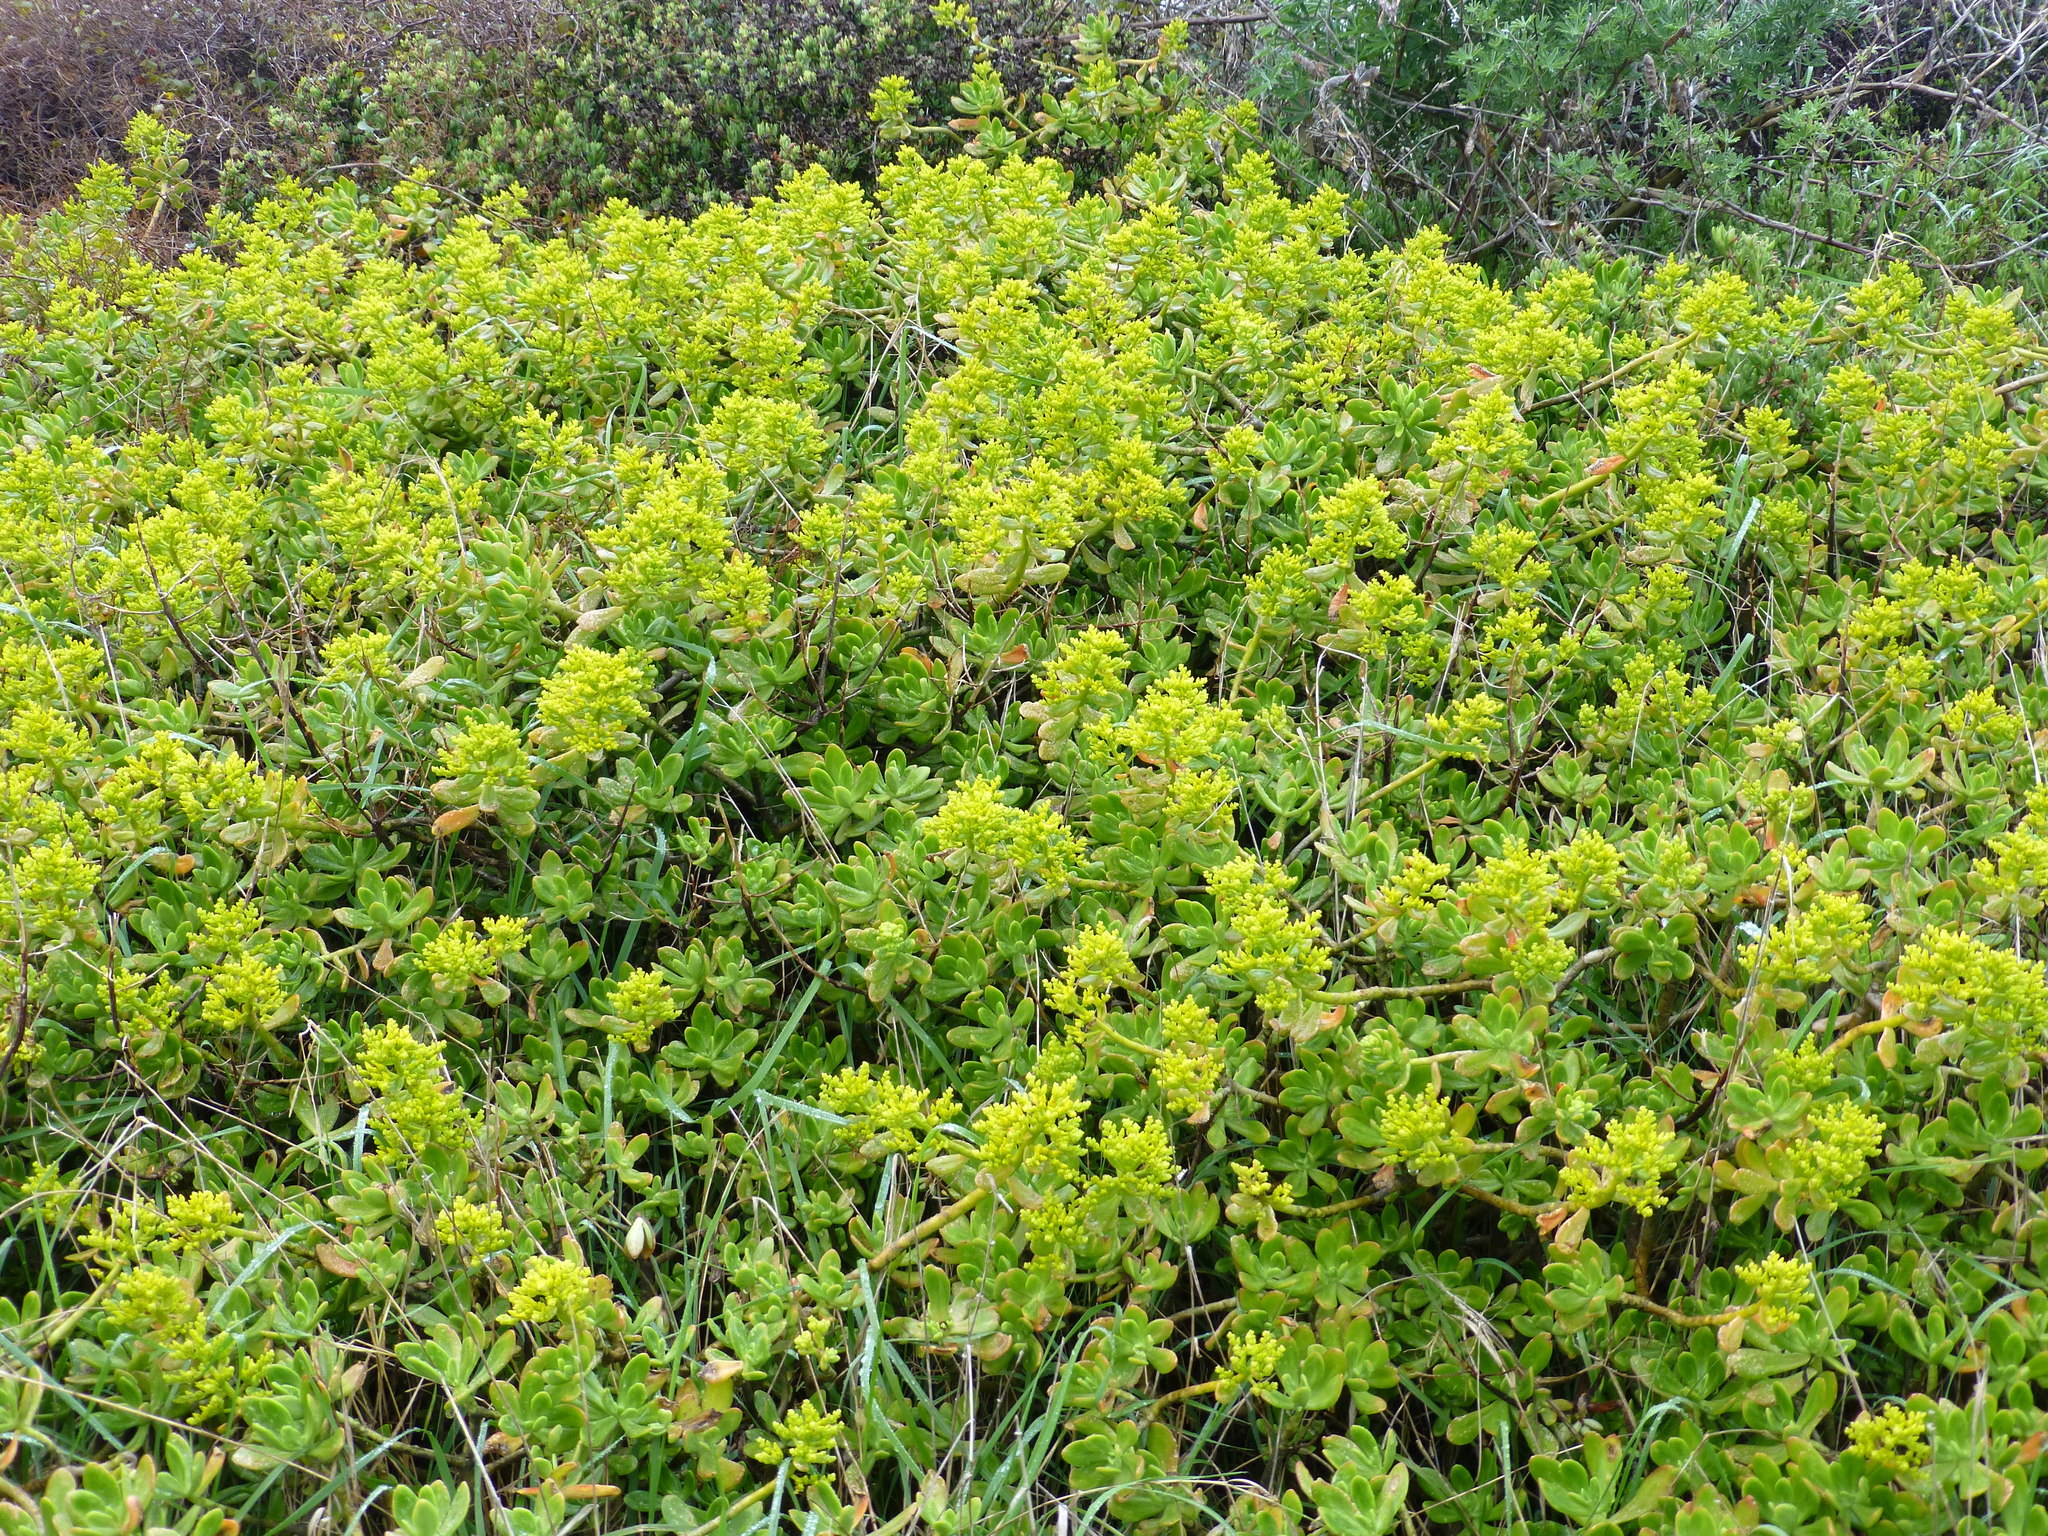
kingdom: Plantae
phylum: Tracheophyta
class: Magnoliopsida
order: Saxifragales
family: Crassulaceae
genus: Sedum
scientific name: Sedum praealtum
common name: Greater mexican-stonecrop
